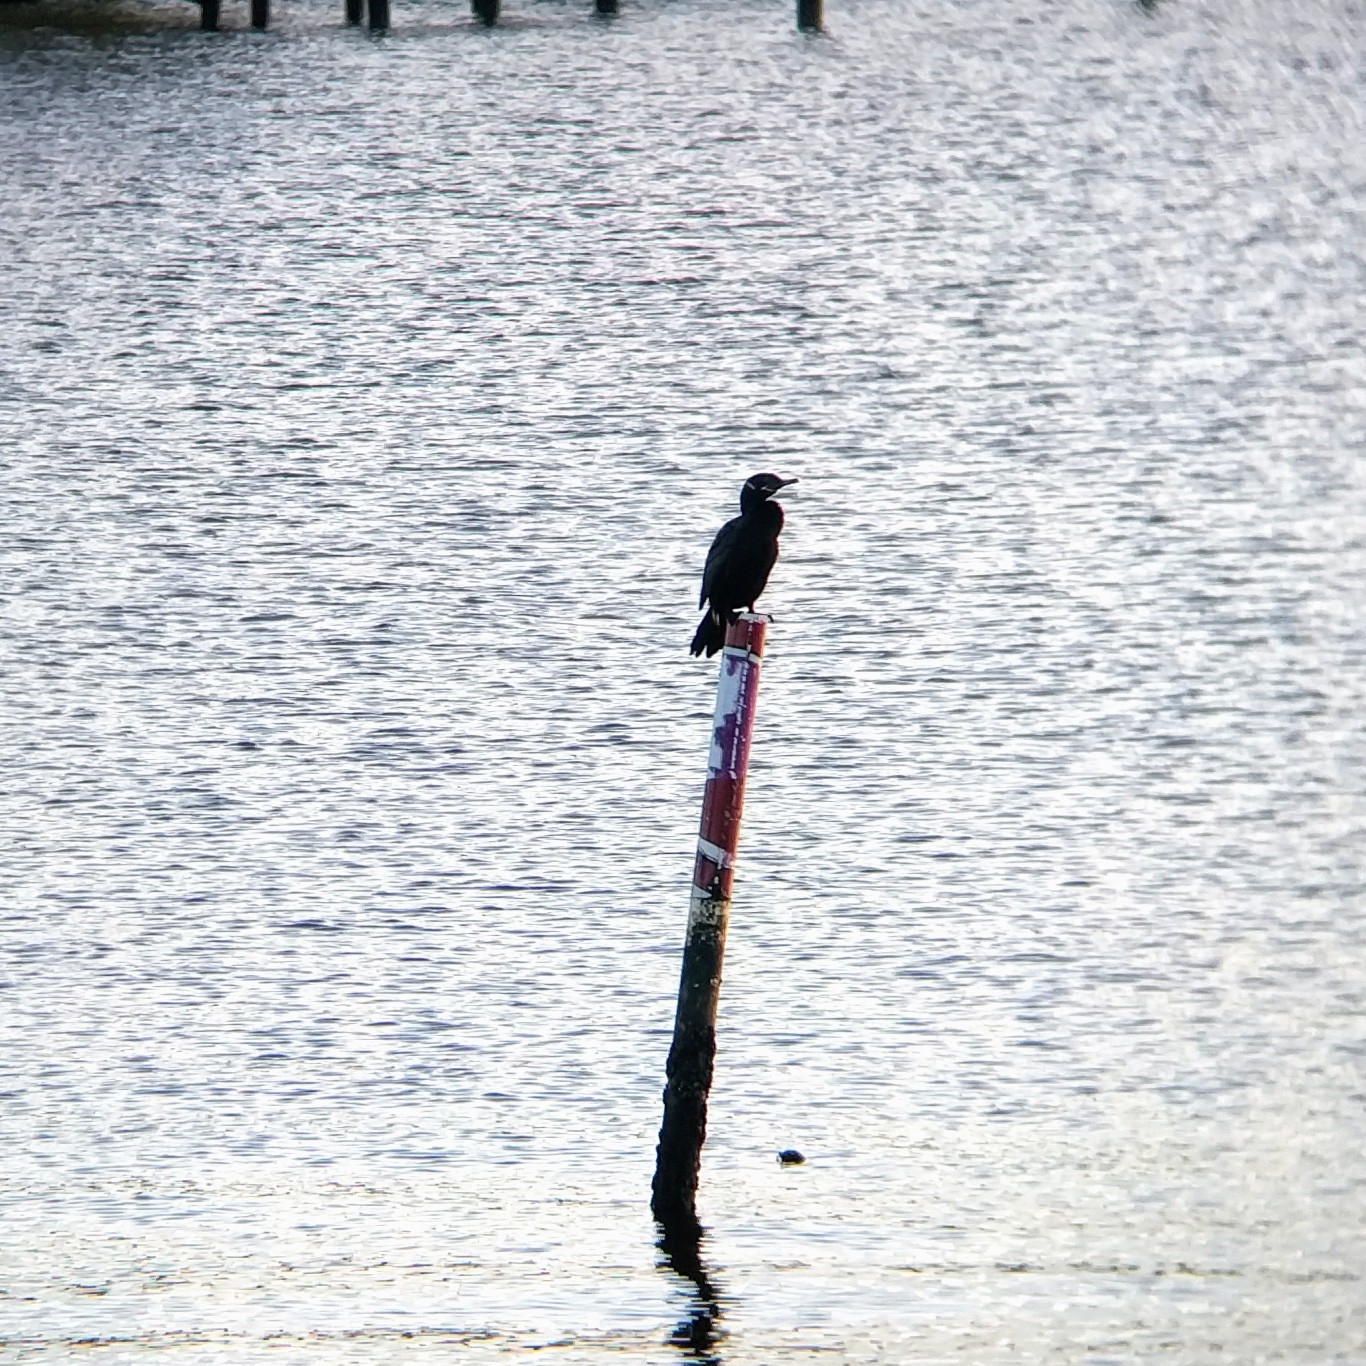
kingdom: Animalia
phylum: Chordata
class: Aves
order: Suliformes
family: Phalacrocoracidae
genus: Phalacrocorax
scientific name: Phalacrocorax brasilianus
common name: Neotropic cormorant
